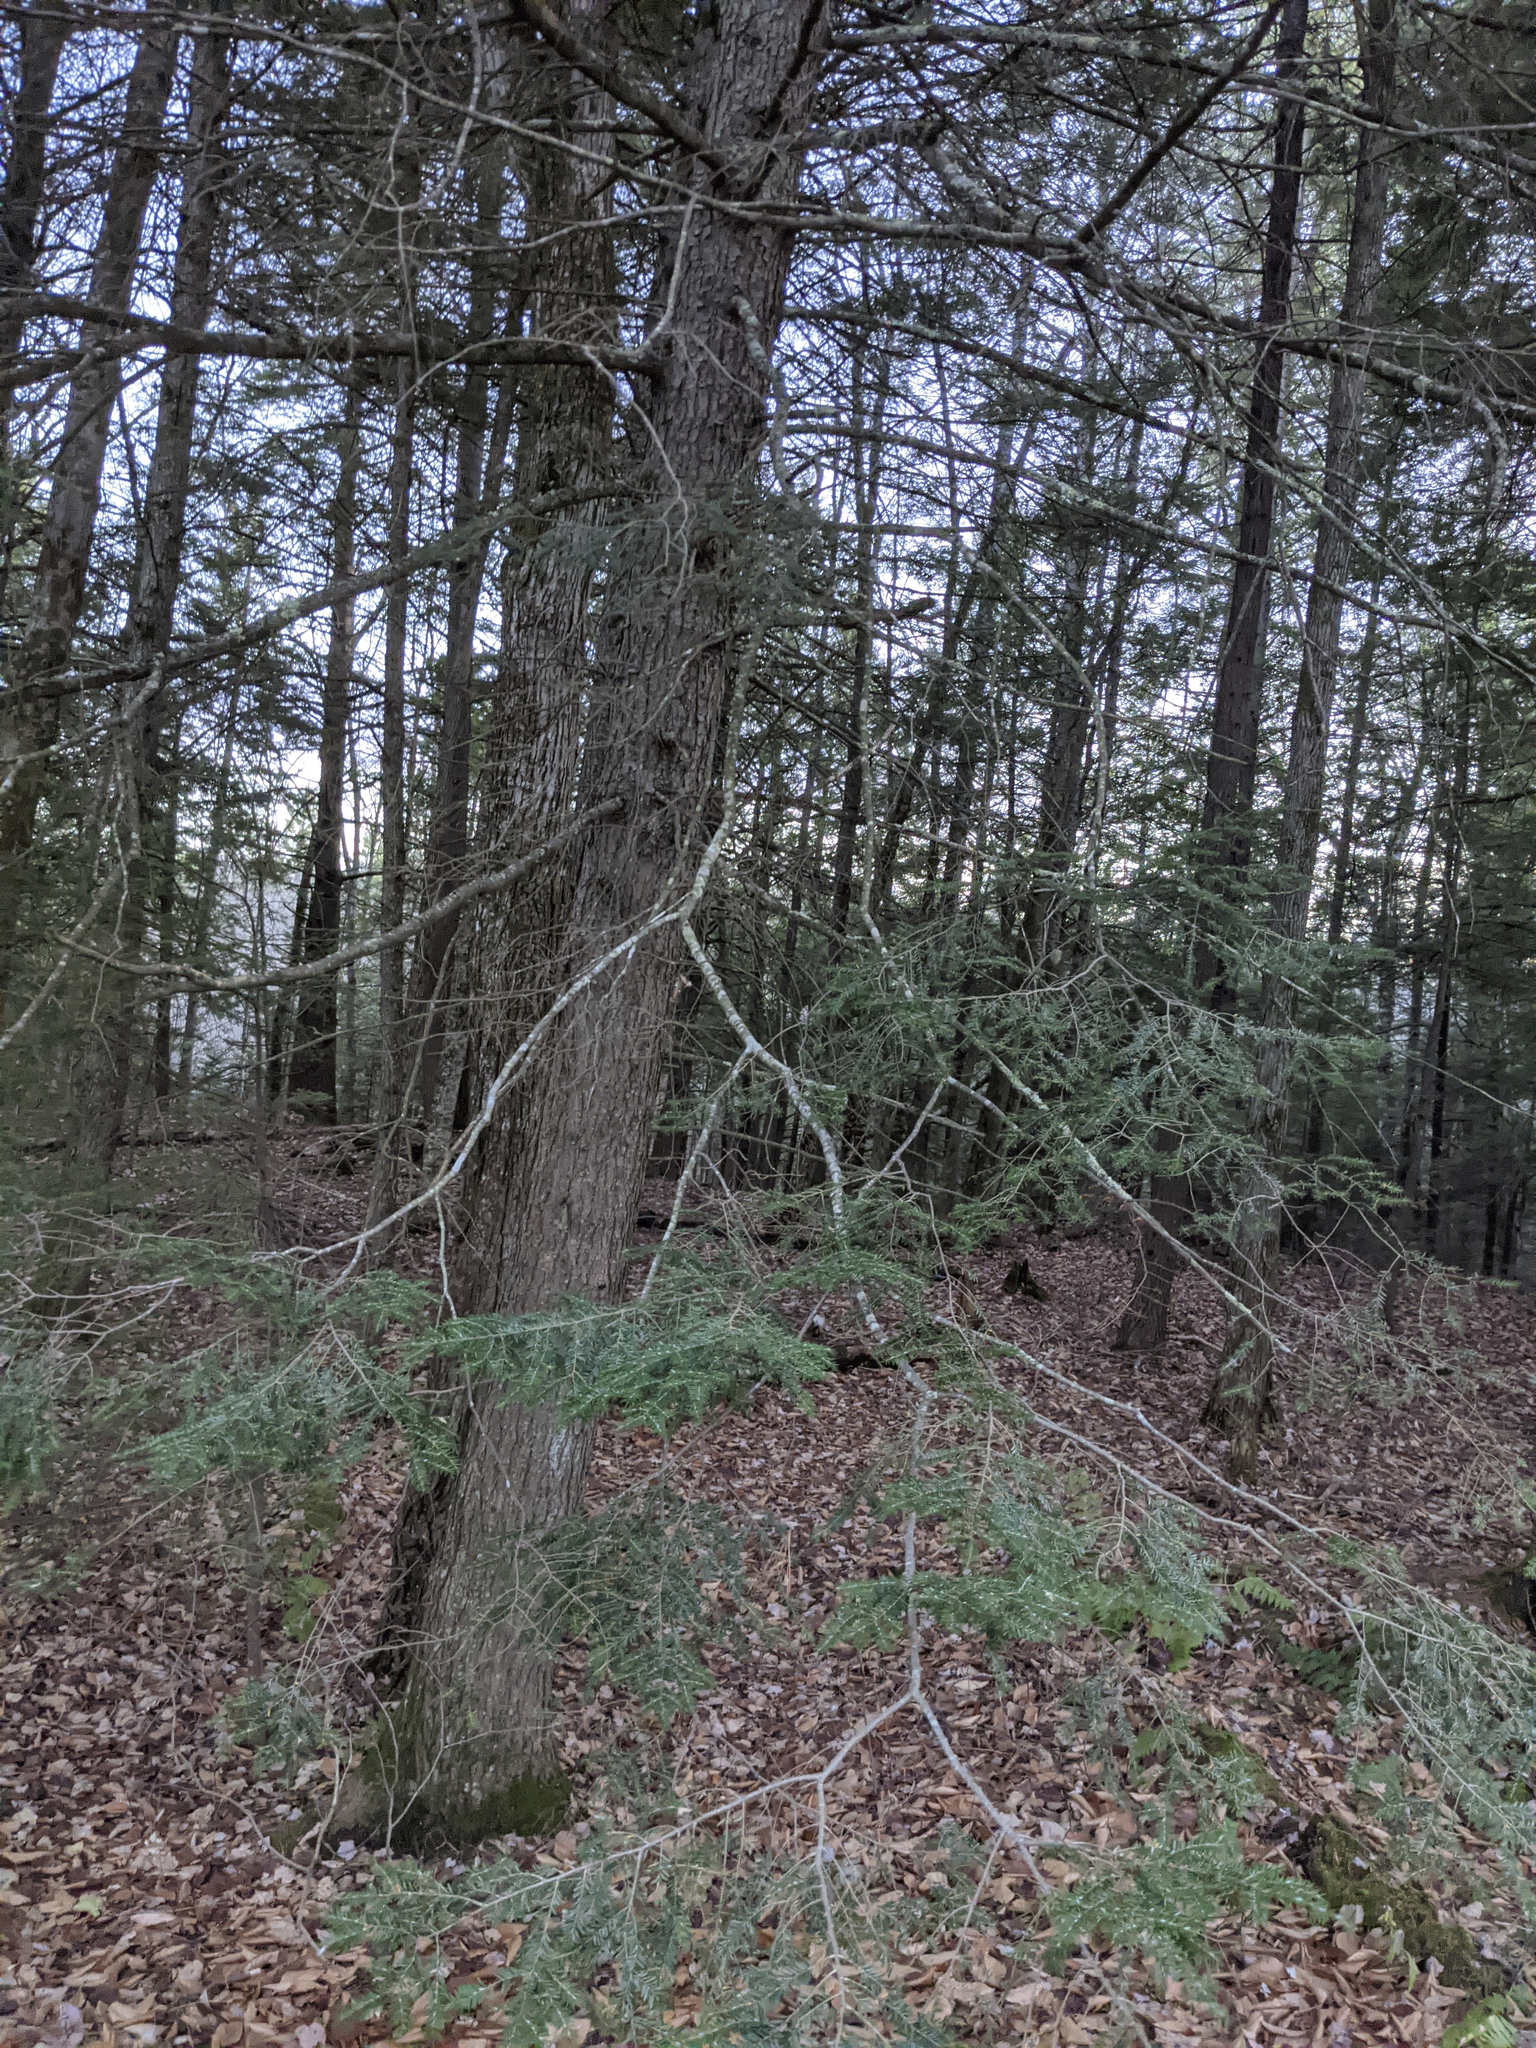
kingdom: Plantae
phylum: Tracheophyta
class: Pinopsida
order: Pinales
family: Pinaceae
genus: Tsuga
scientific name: Tsuga canadensis
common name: Eastern hemlock
